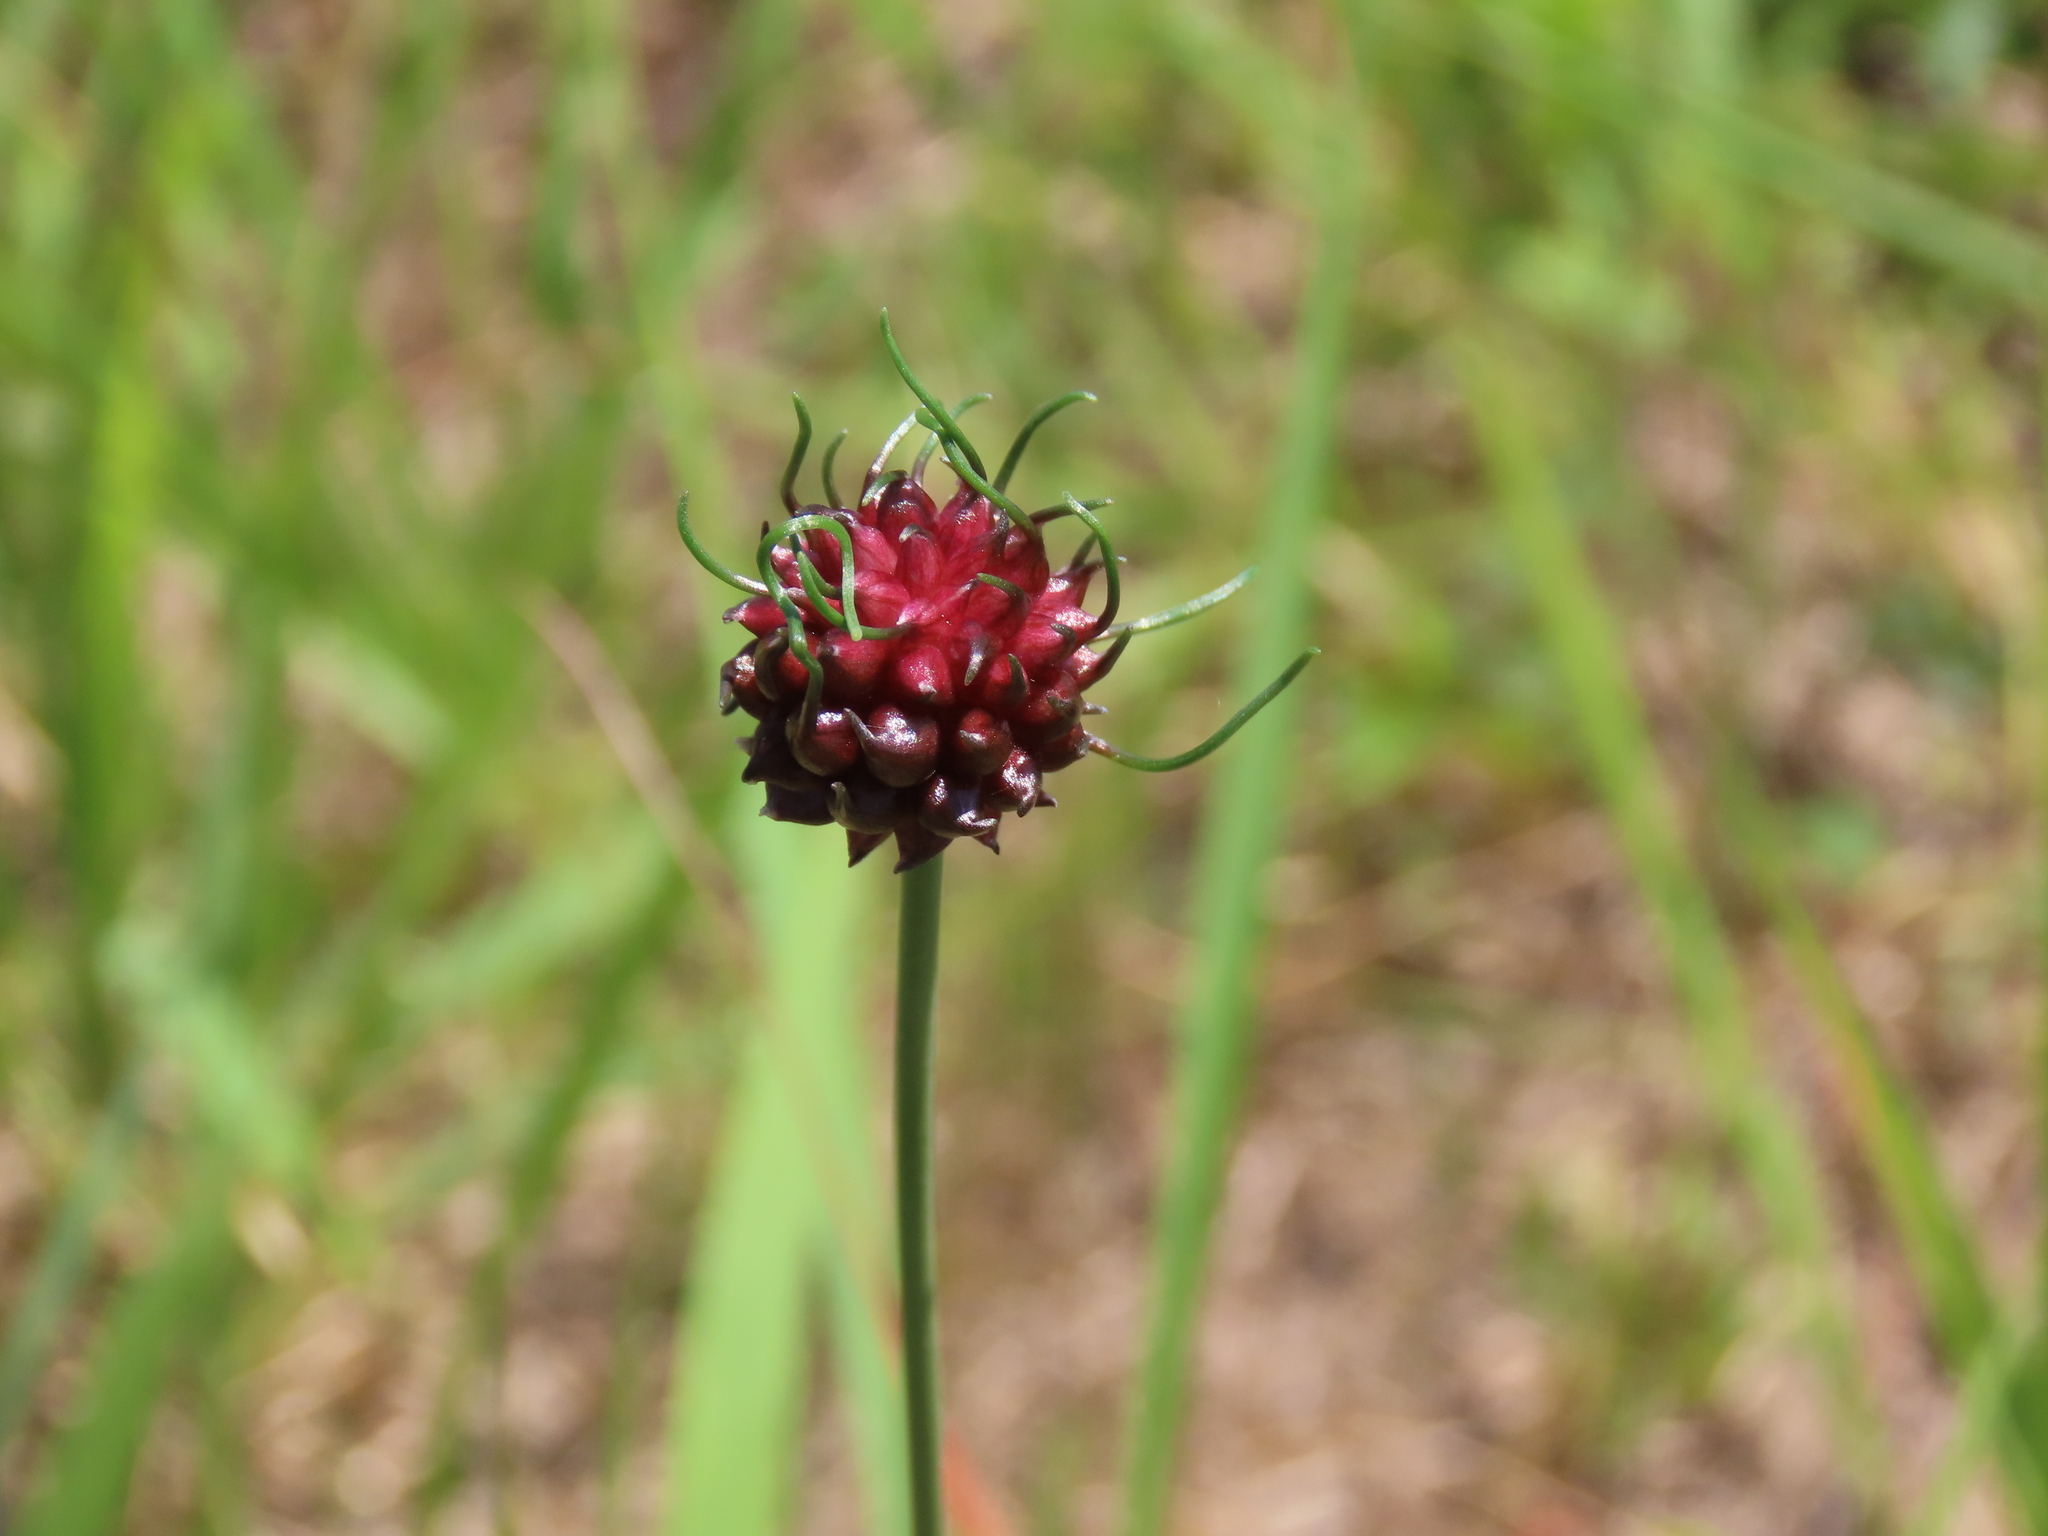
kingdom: Plantae
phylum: Tracheophyta
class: Liliopsida
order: Asparagales
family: Amaryllidaceae
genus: Allium
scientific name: Allium vineale
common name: Crow garlic
